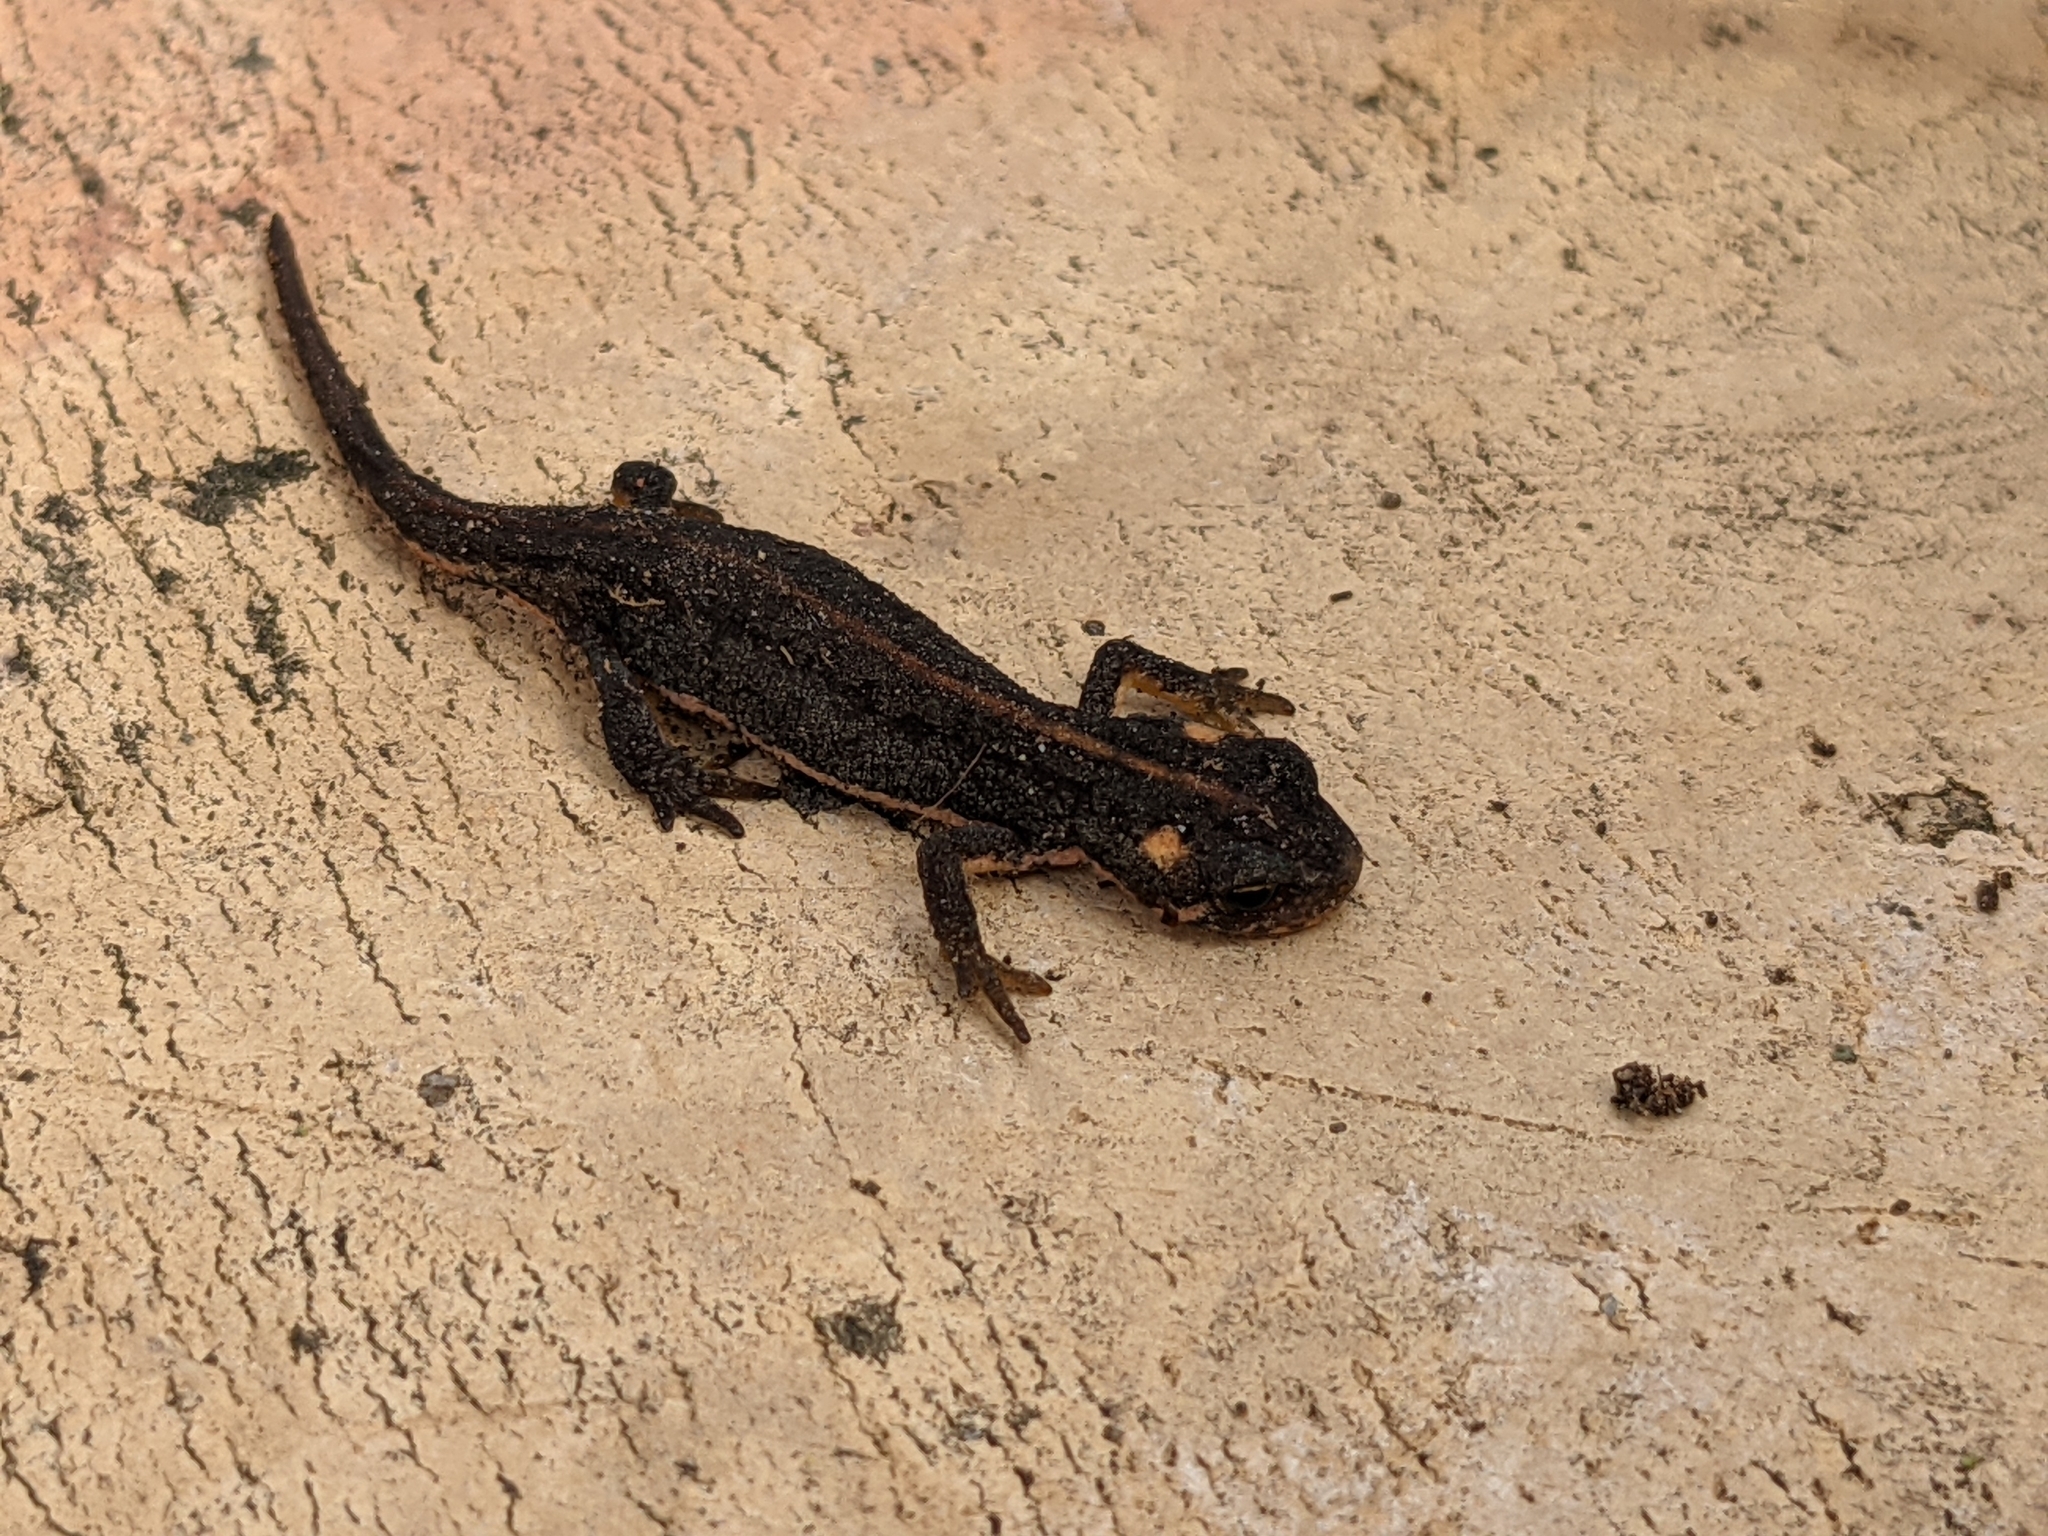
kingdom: Animalia
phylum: Chordata
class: Amphibia
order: Caudata
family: Salamandridae
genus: Ommatotriton
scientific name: Ommatotriton ophryticus
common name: Northern banded newt
